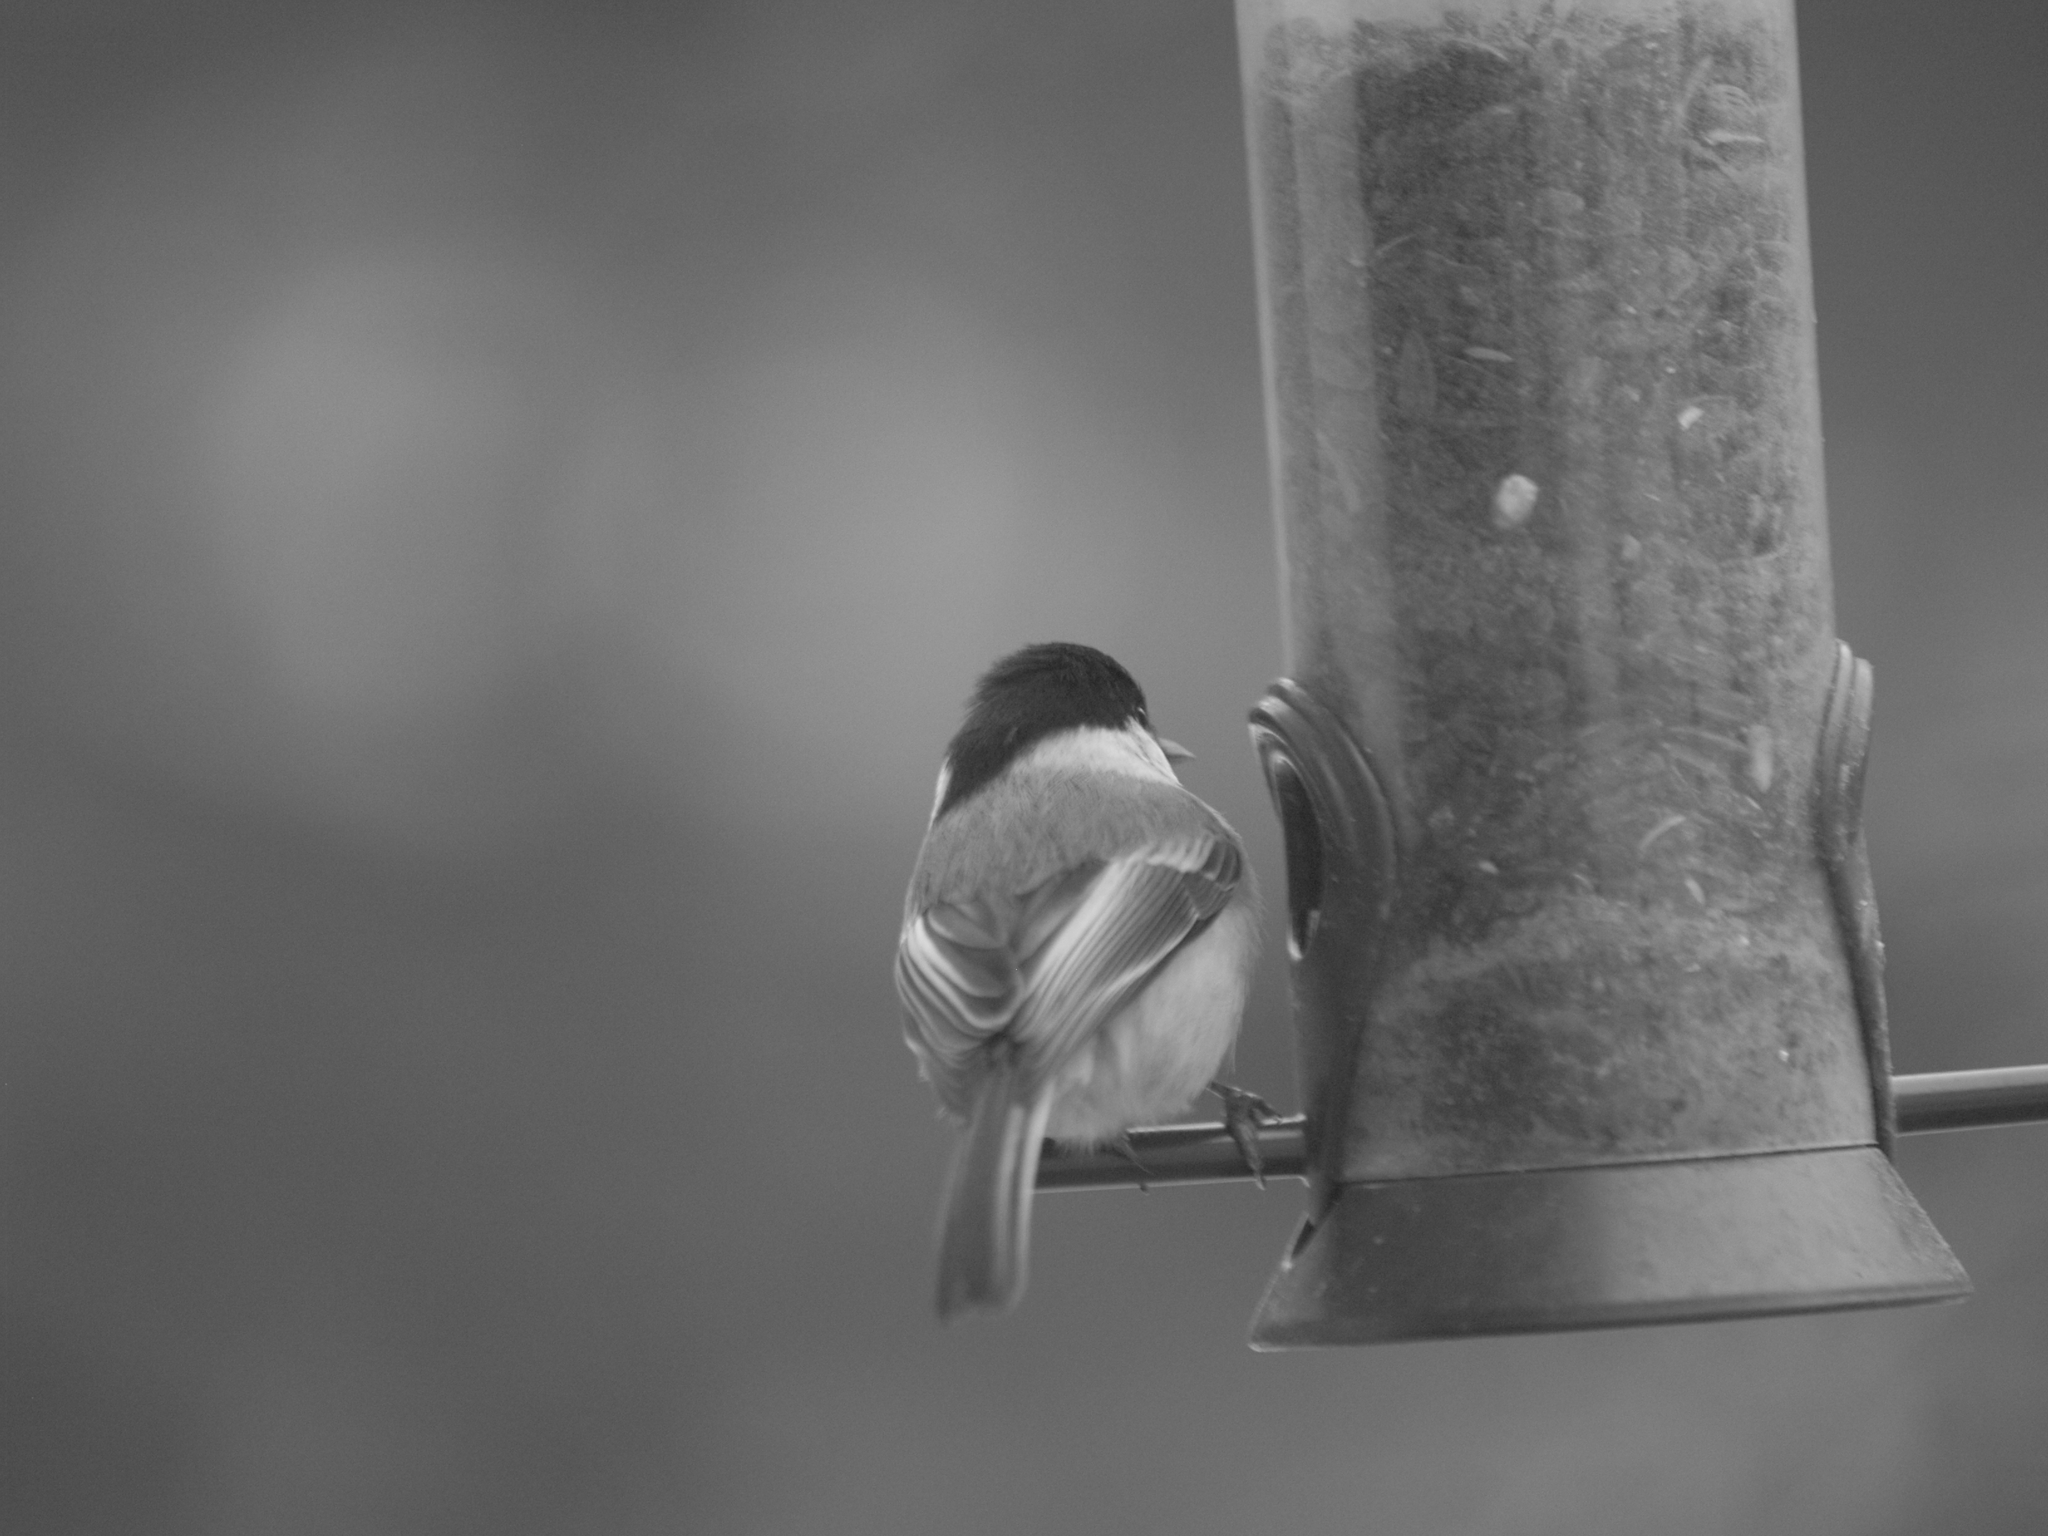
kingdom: Animalia
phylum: Chordata
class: Aves
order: Passeriformes
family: Paridae
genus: Poecile
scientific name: Poecile atricapillus
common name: Black-capped chickadee
